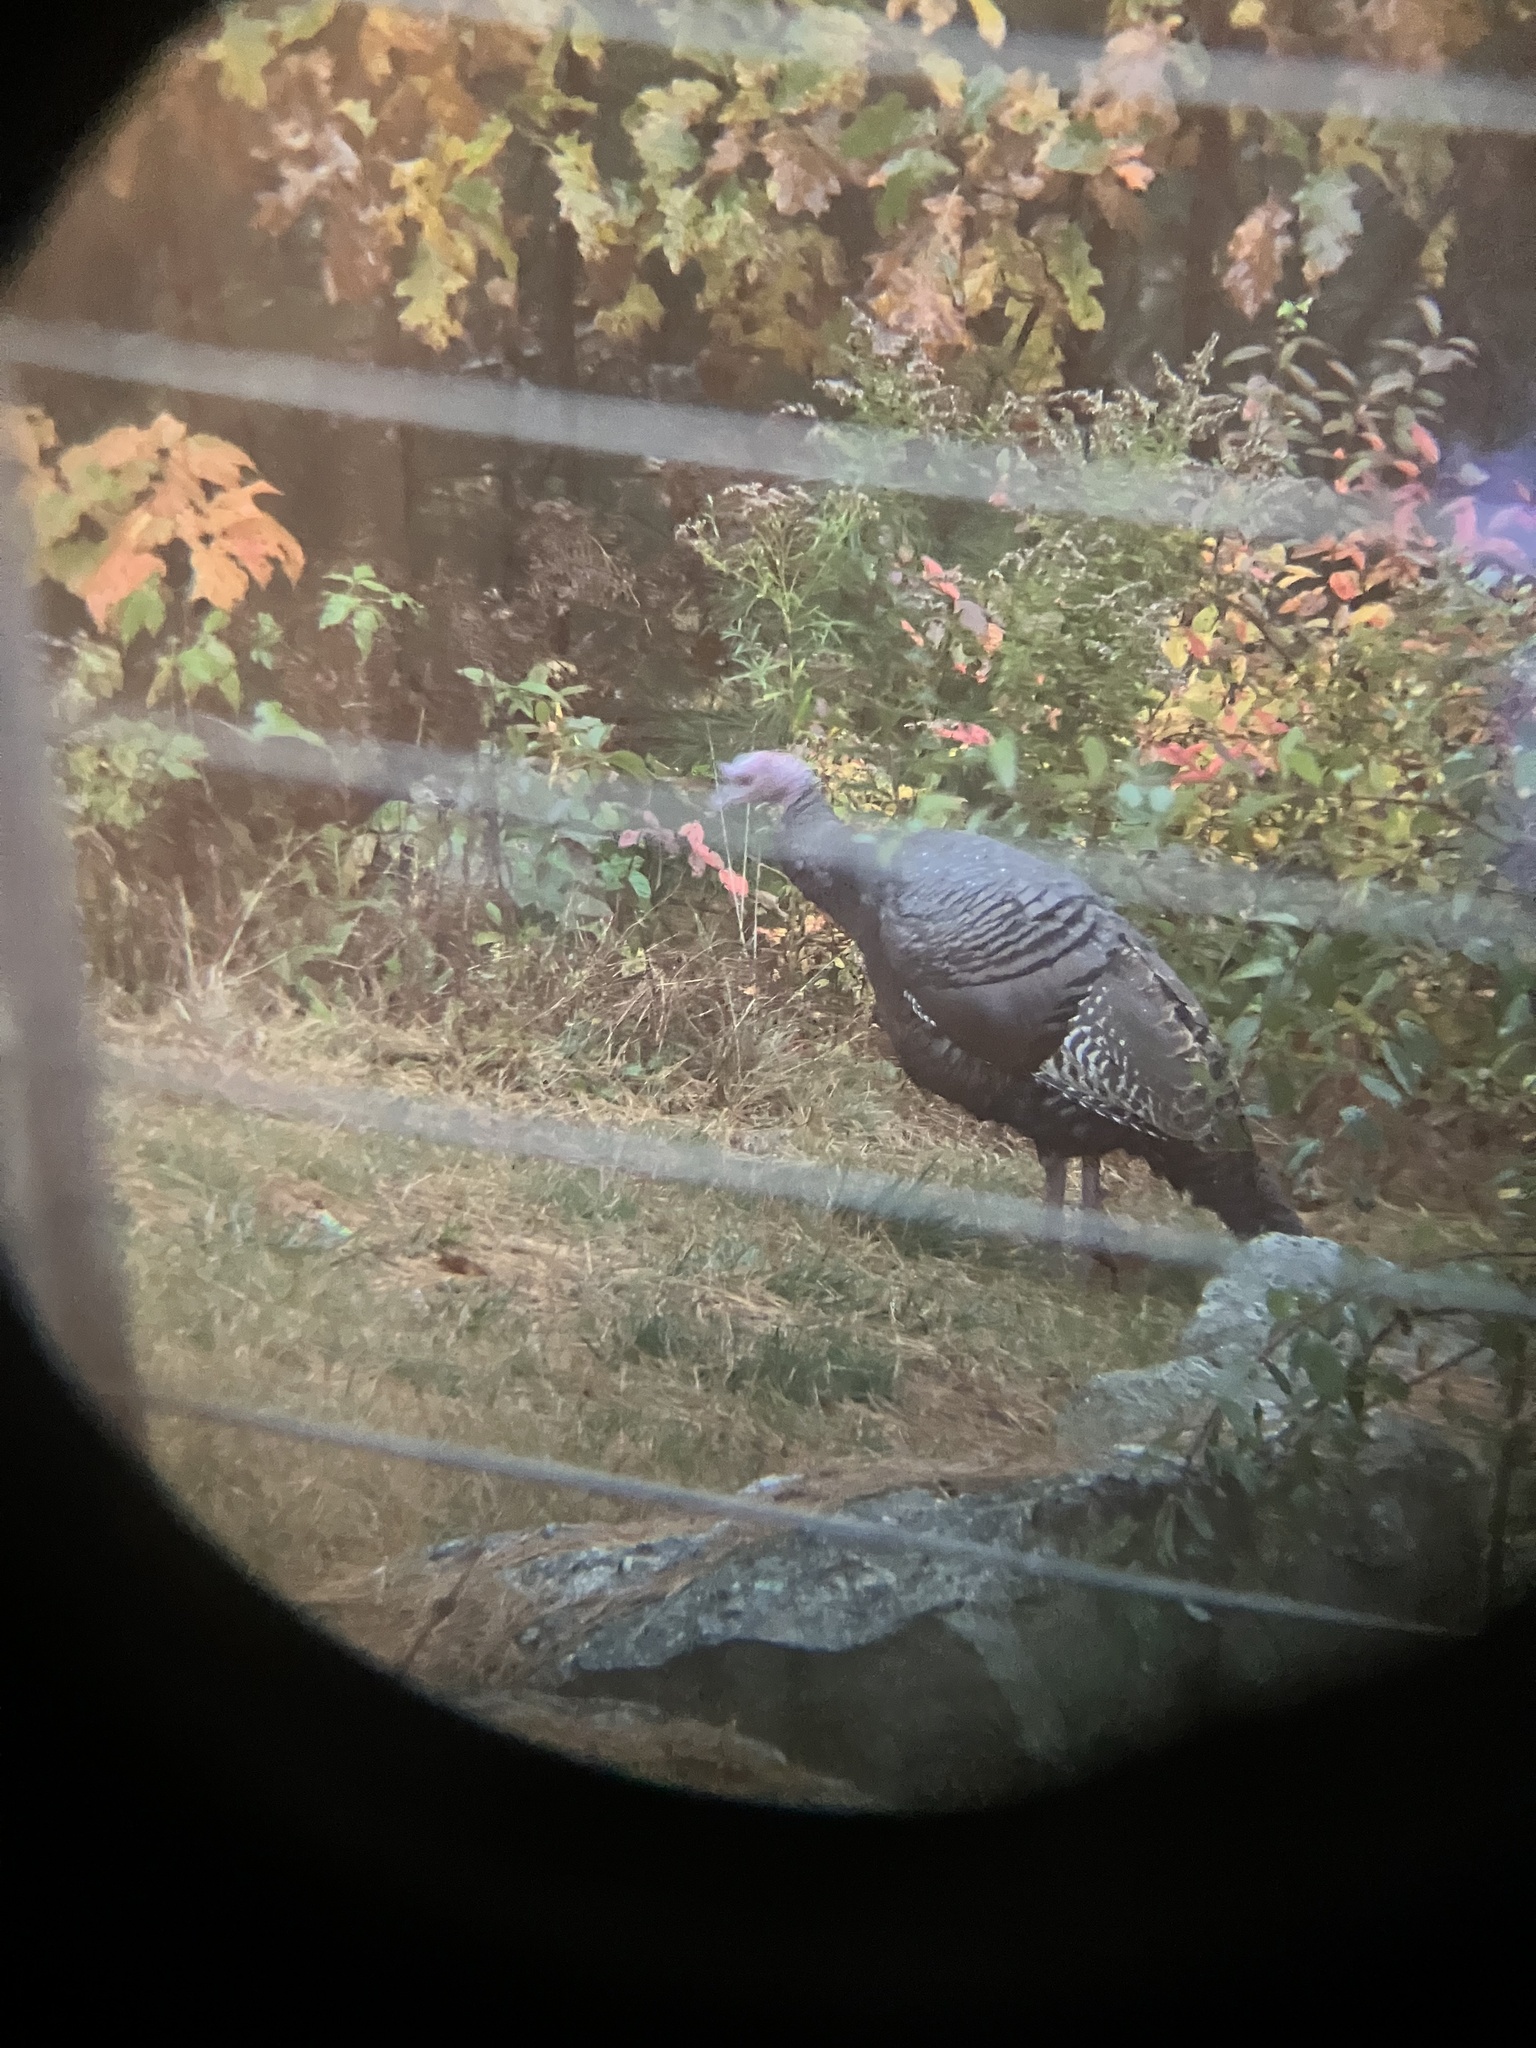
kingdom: Animalia
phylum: Chordata
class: Aves
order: Galliformes
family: Phasianidae
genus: Meleagris
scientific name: Meleagris gallopavo
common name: Wild turkey
